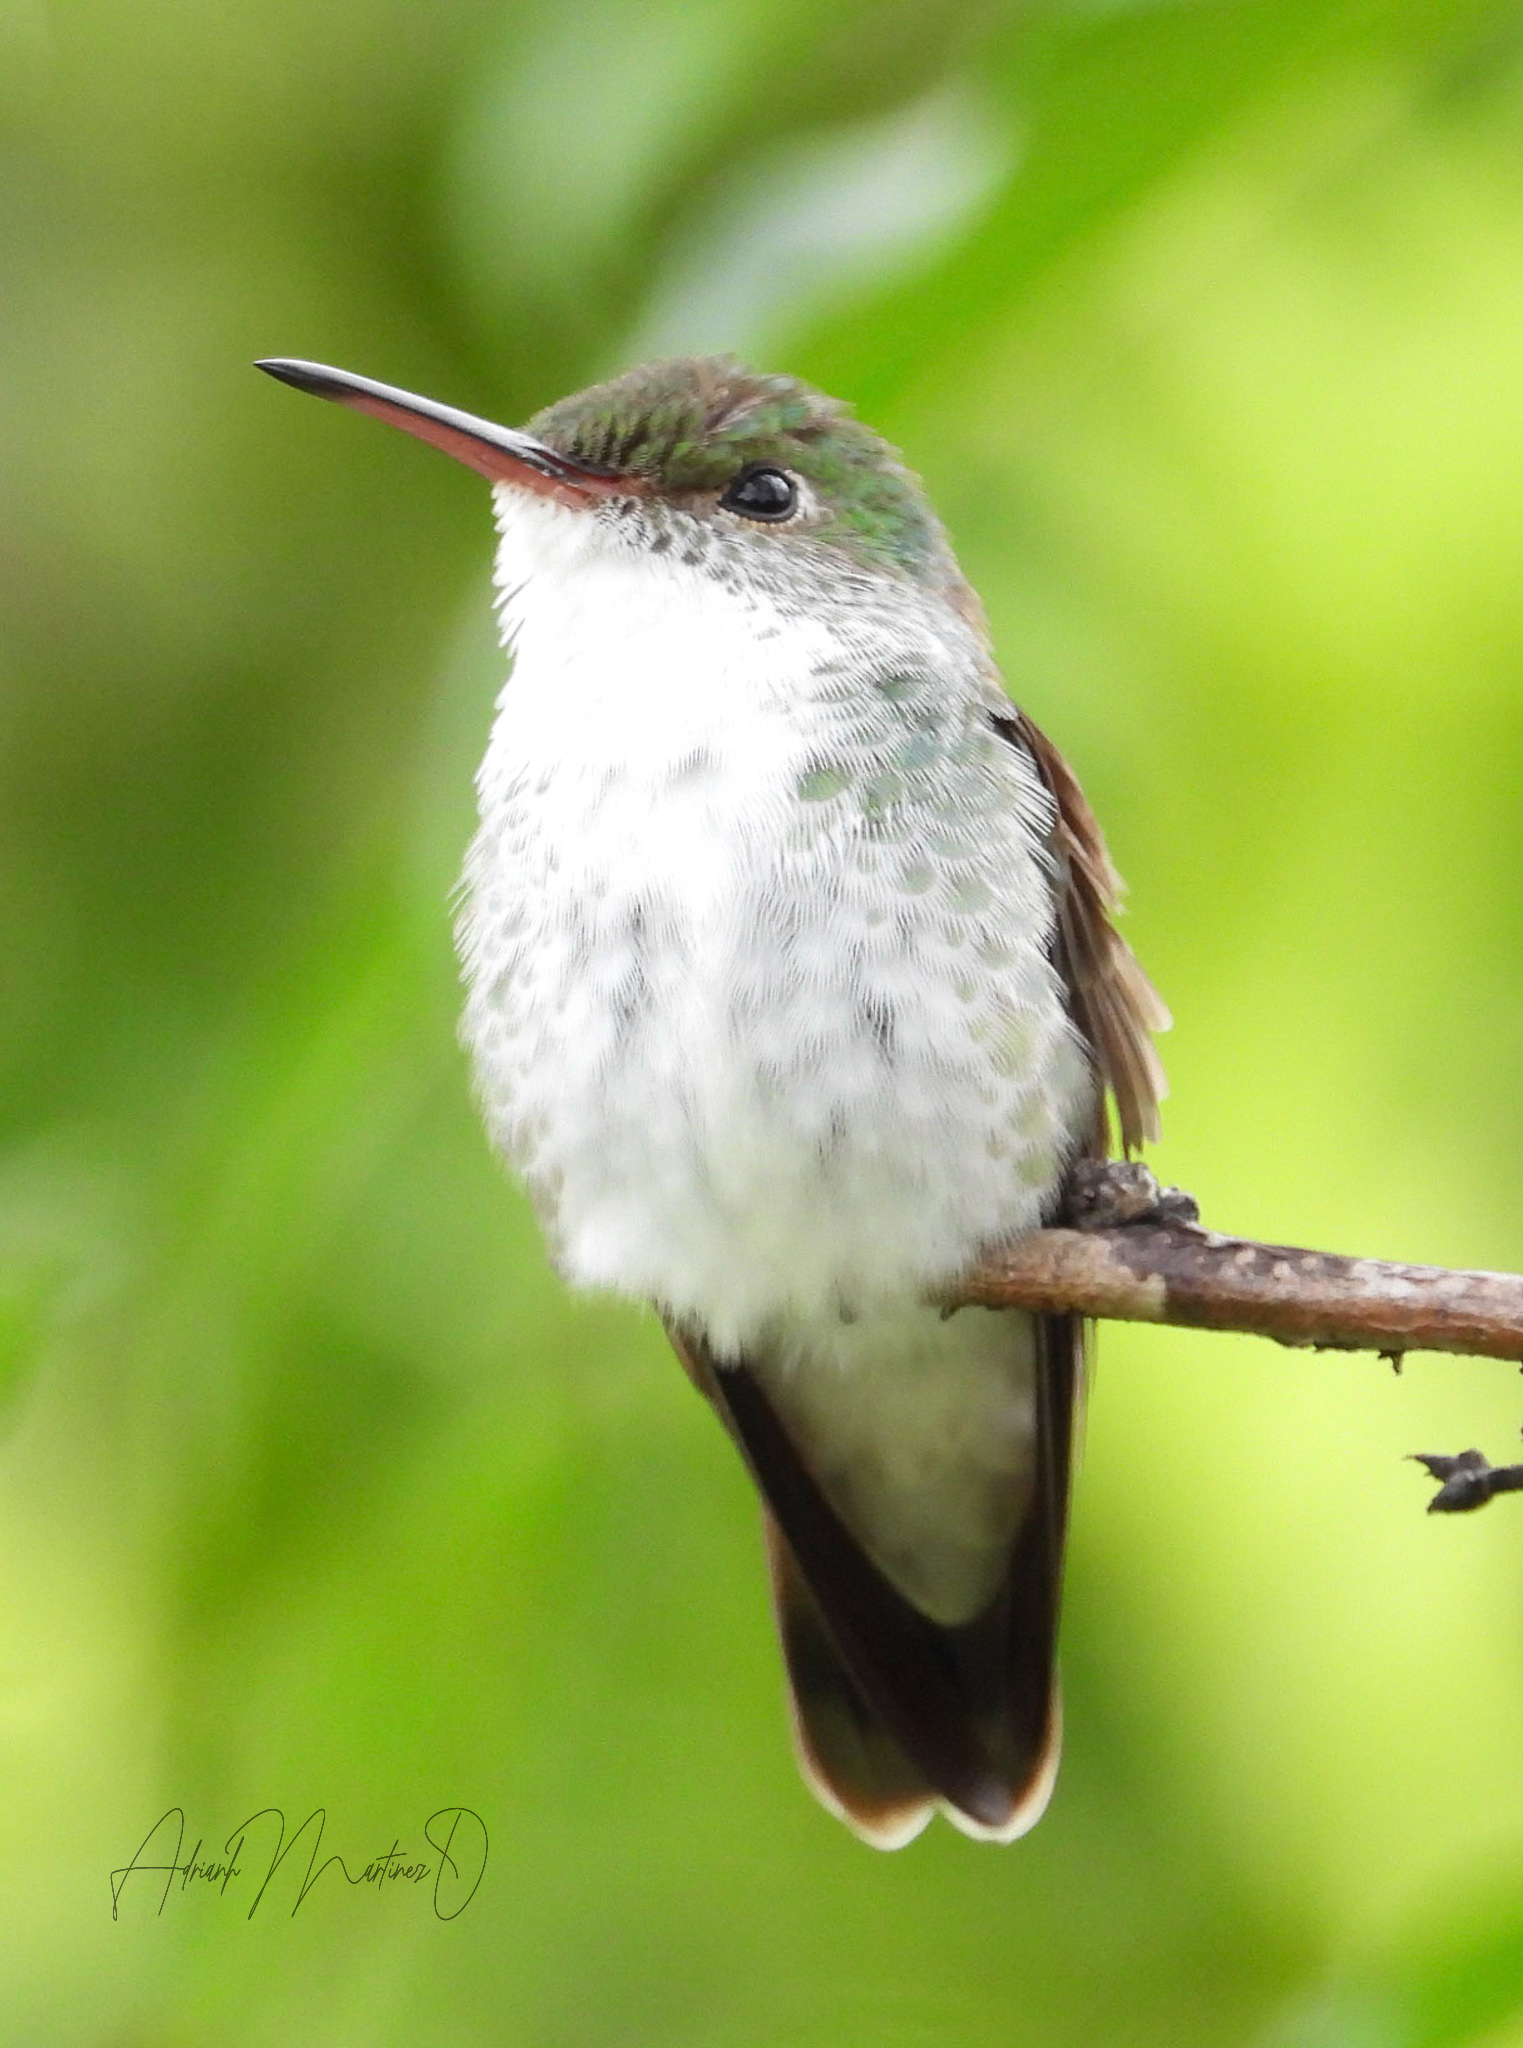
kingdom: Animalia
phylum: Chordata
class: Aves
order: Apodiformes
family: Trochilidae
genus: Chlorestes
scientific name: Chlorestes candida
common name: White-bellied emerald
